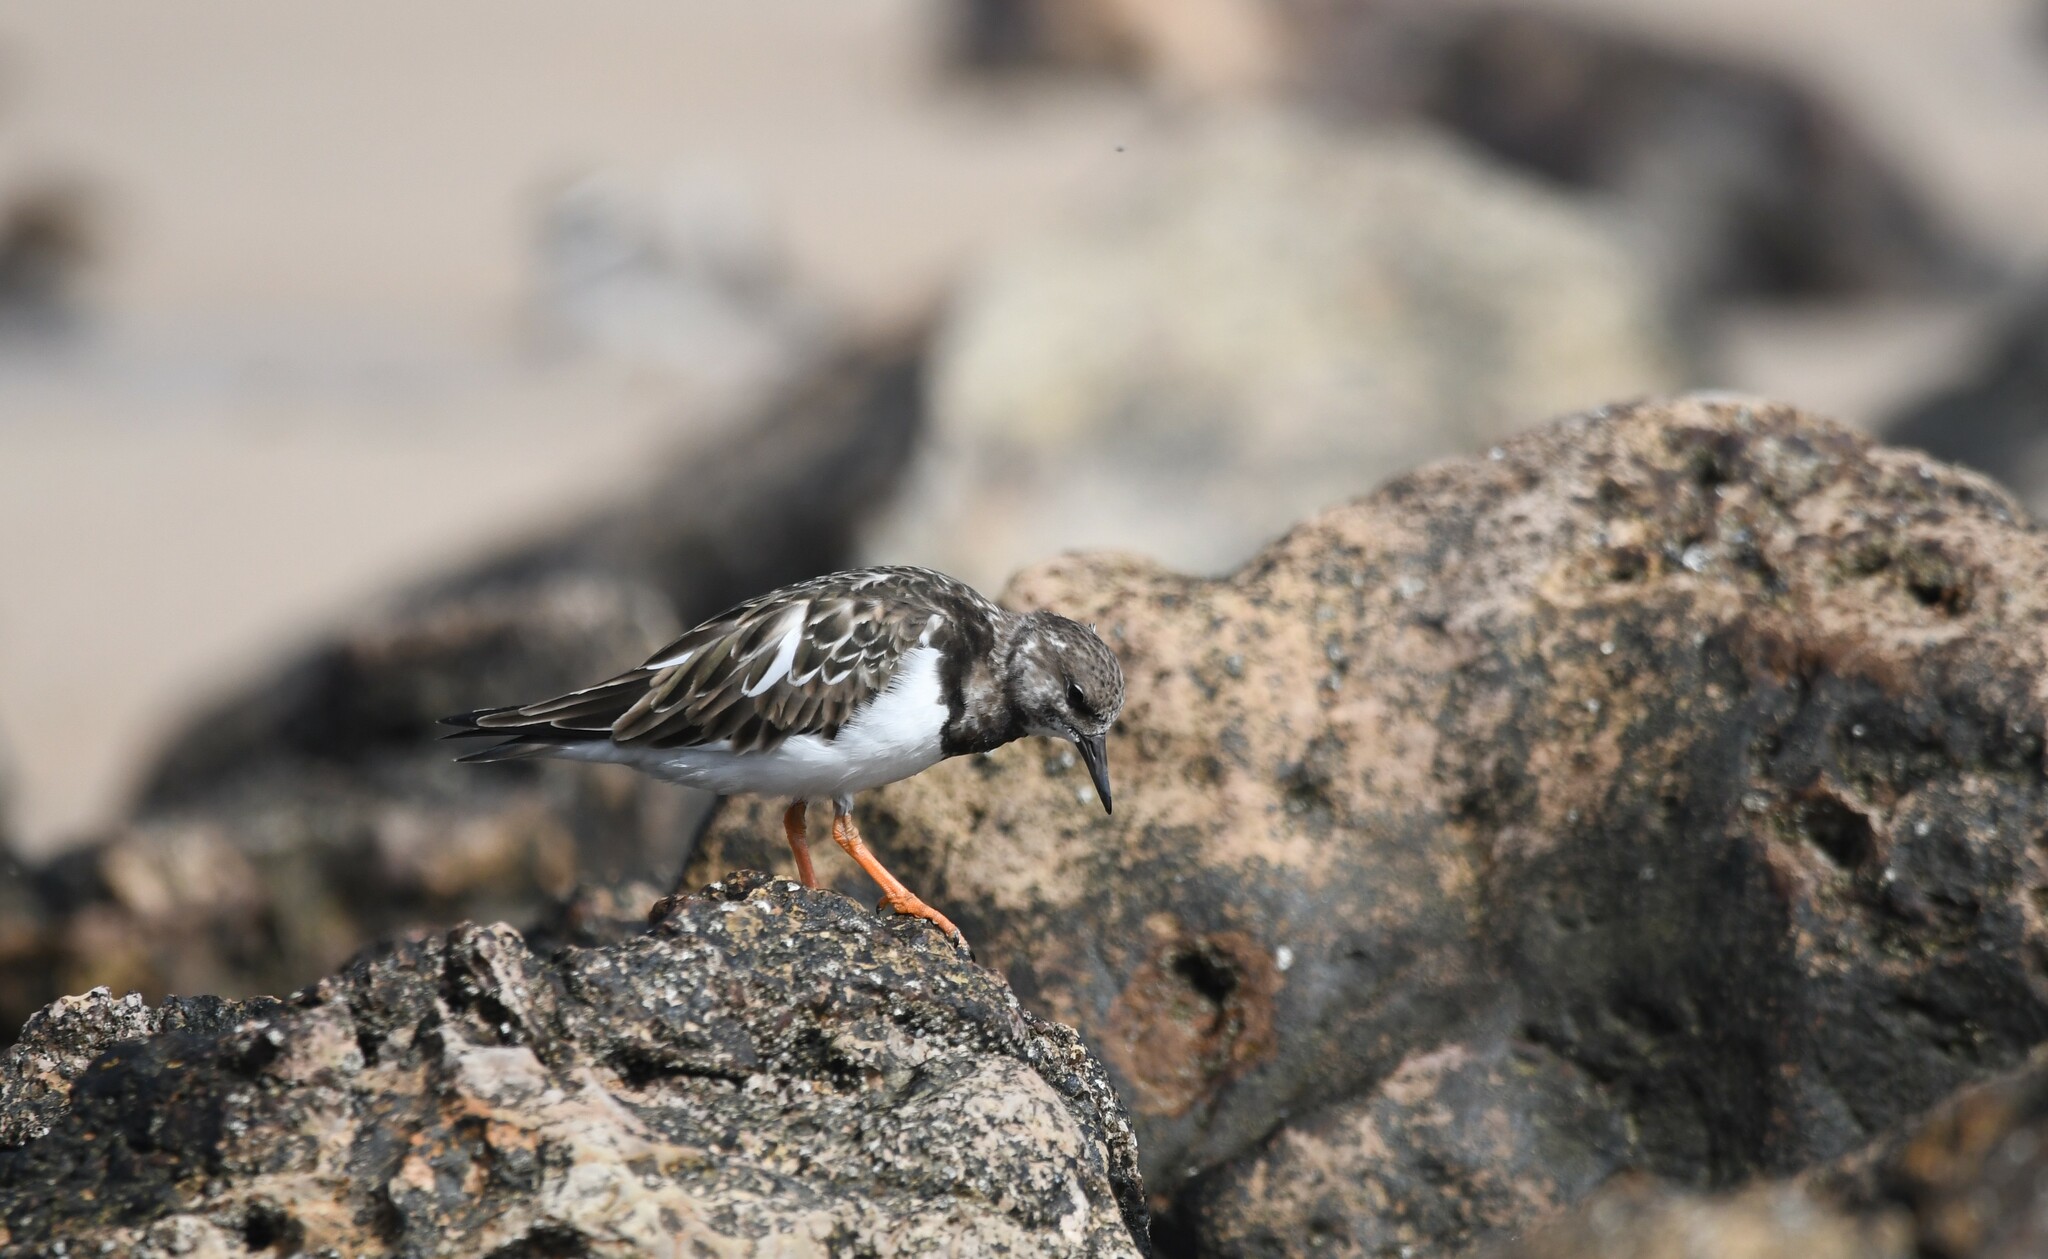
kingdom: Animalia
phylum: Chordata
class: Aves
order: Charadriiformes
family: Scolopacidae
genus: Arenaria
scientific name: Arenaria interpres
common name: Ruddy turnstone
